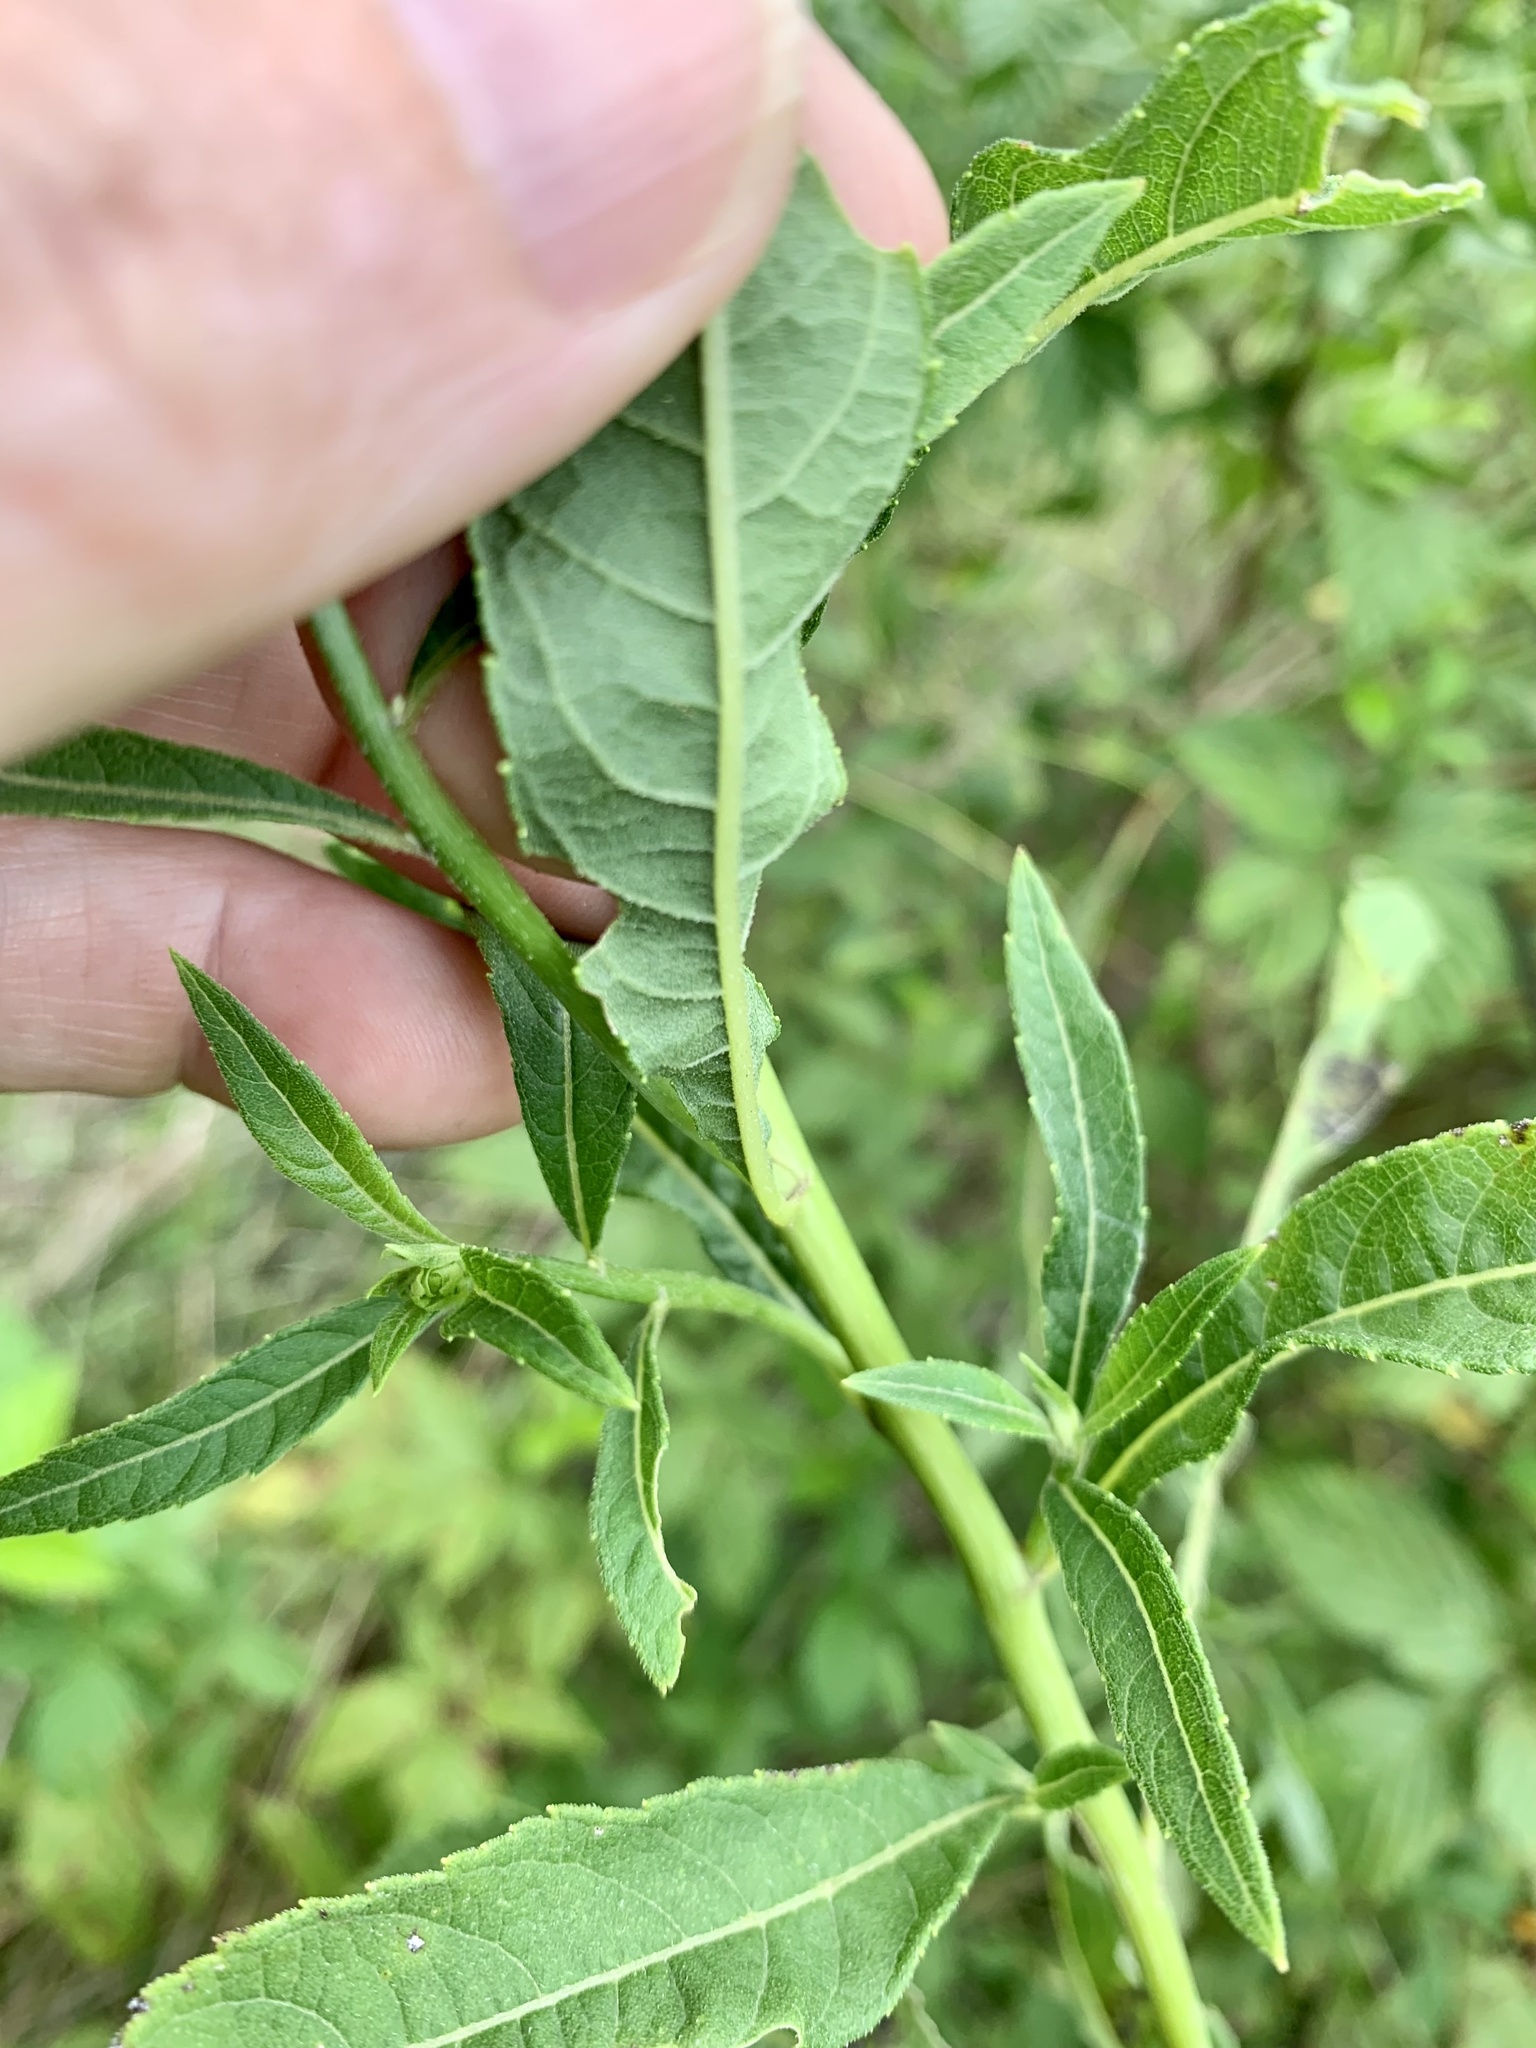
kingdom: Plantae
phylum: Tracheophyta
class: Magnoliopsida
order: Asterales
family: Asteraceae
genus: Verbesina
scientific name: Verbesina walteri
